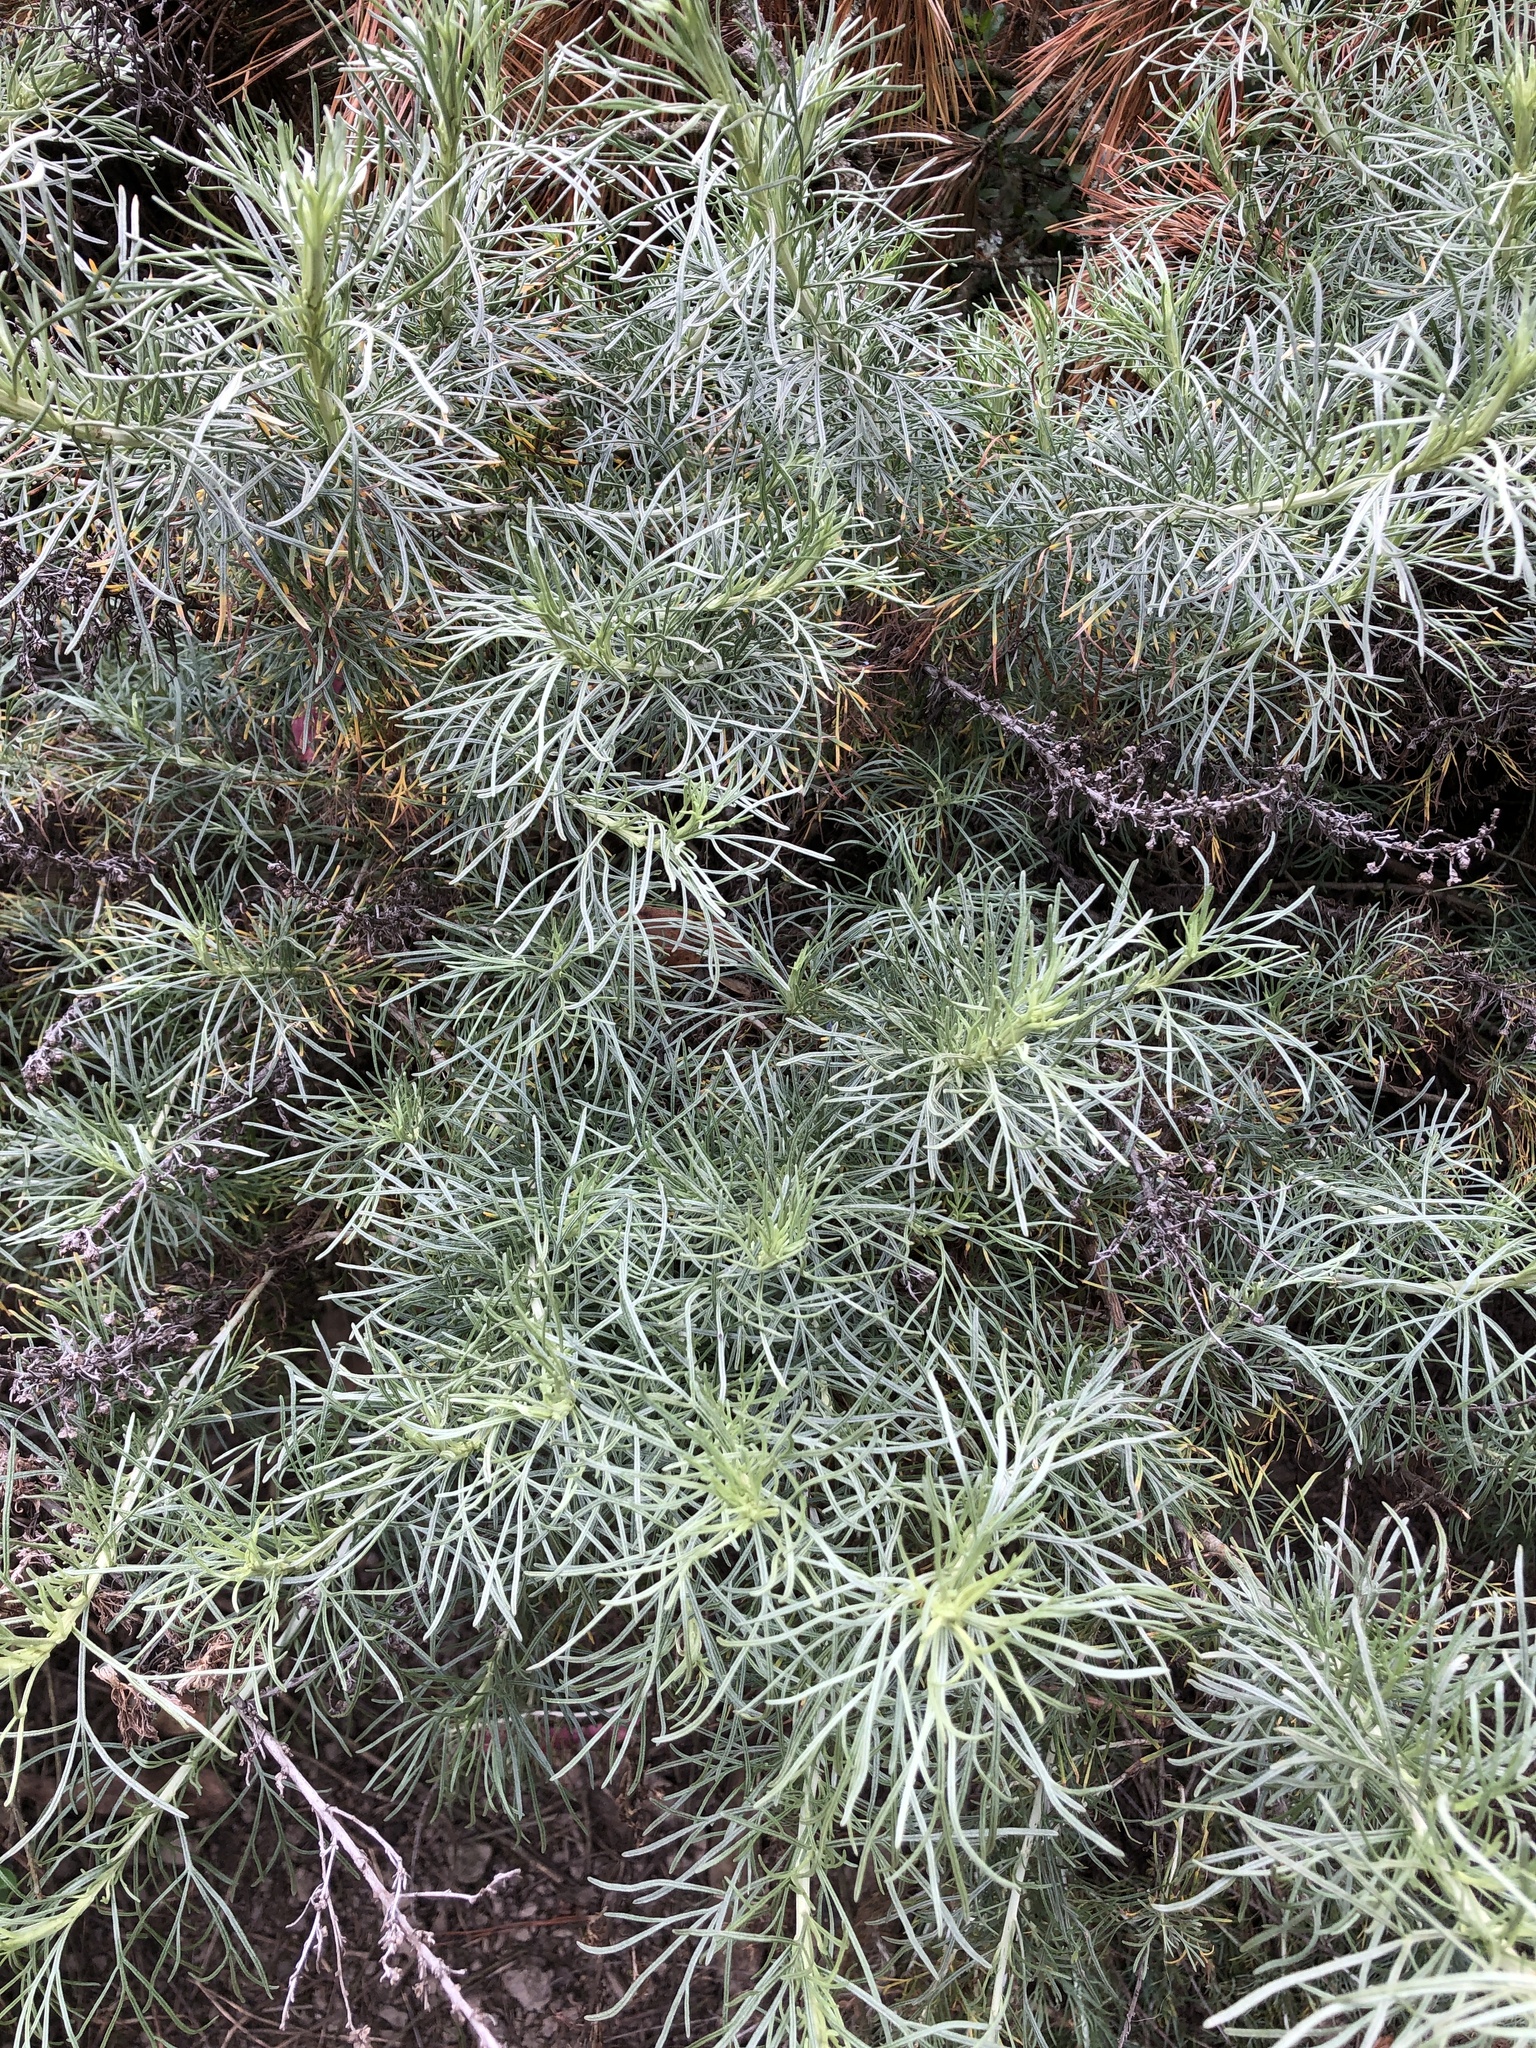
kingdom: Plantae
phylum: Tracheophyta
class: Magnoliopsida
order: Asterales
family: Asteraceae
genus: Artemisia
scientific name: Artemisia californica
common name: California sagebrush
